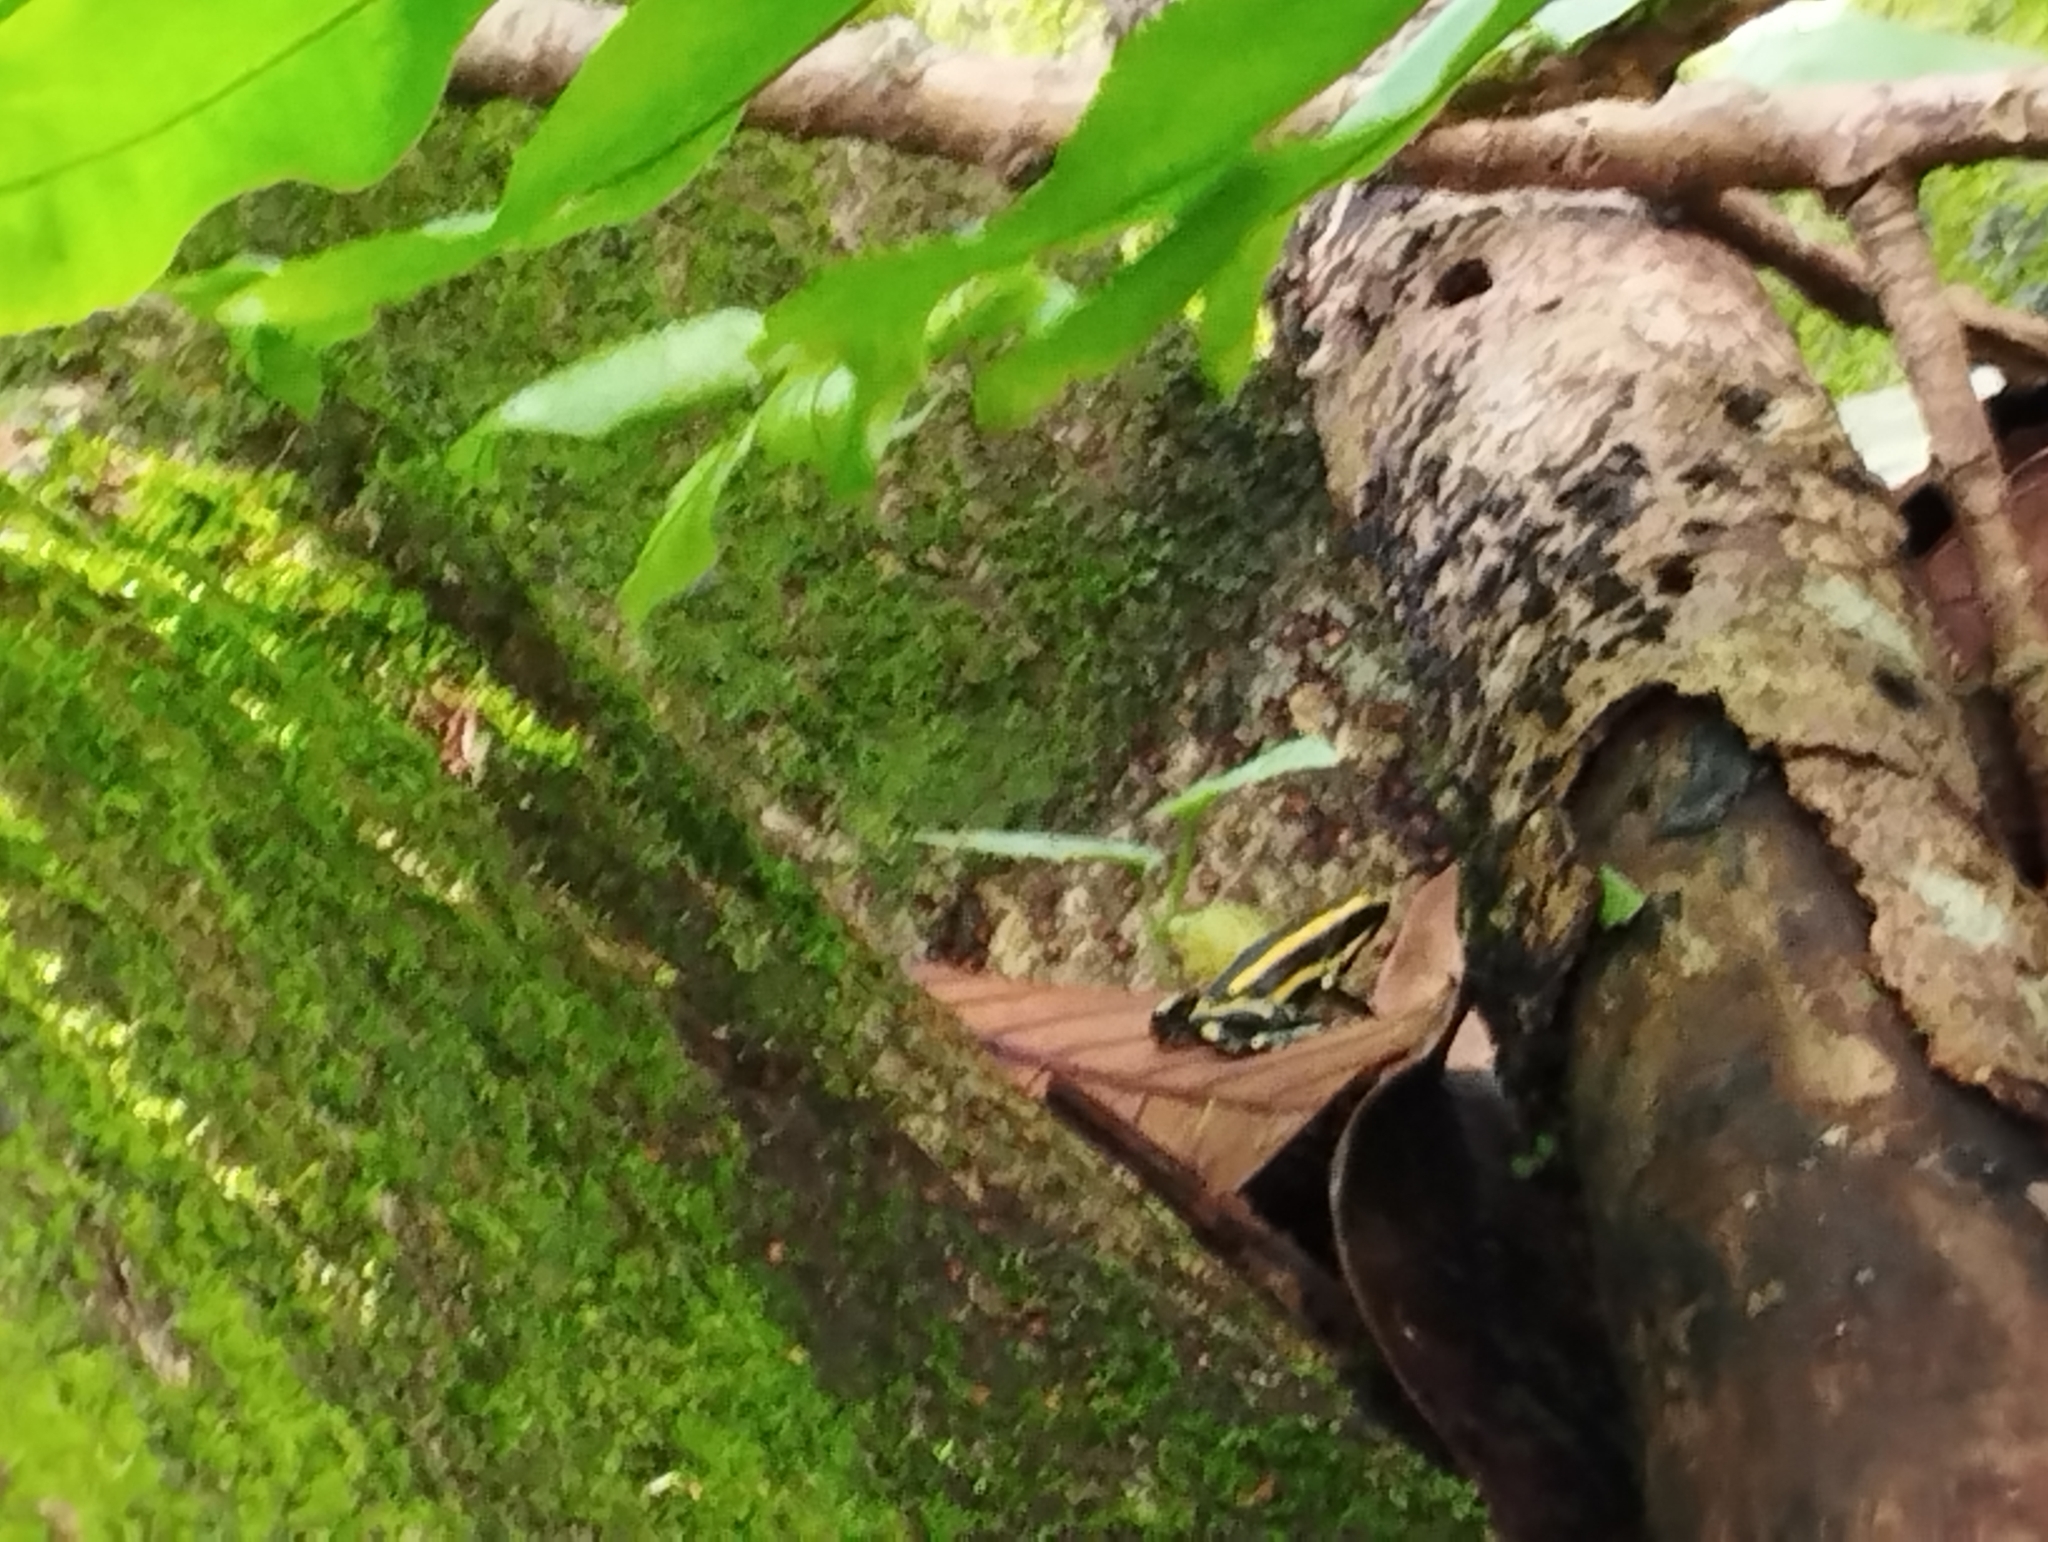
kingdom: Animalia
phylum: Chordata
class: Amphibia
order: Anura
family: Dendrobatidae
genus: Dendrobates
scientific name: Dendrobates truncatus
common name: Yellow-striped poison frog
